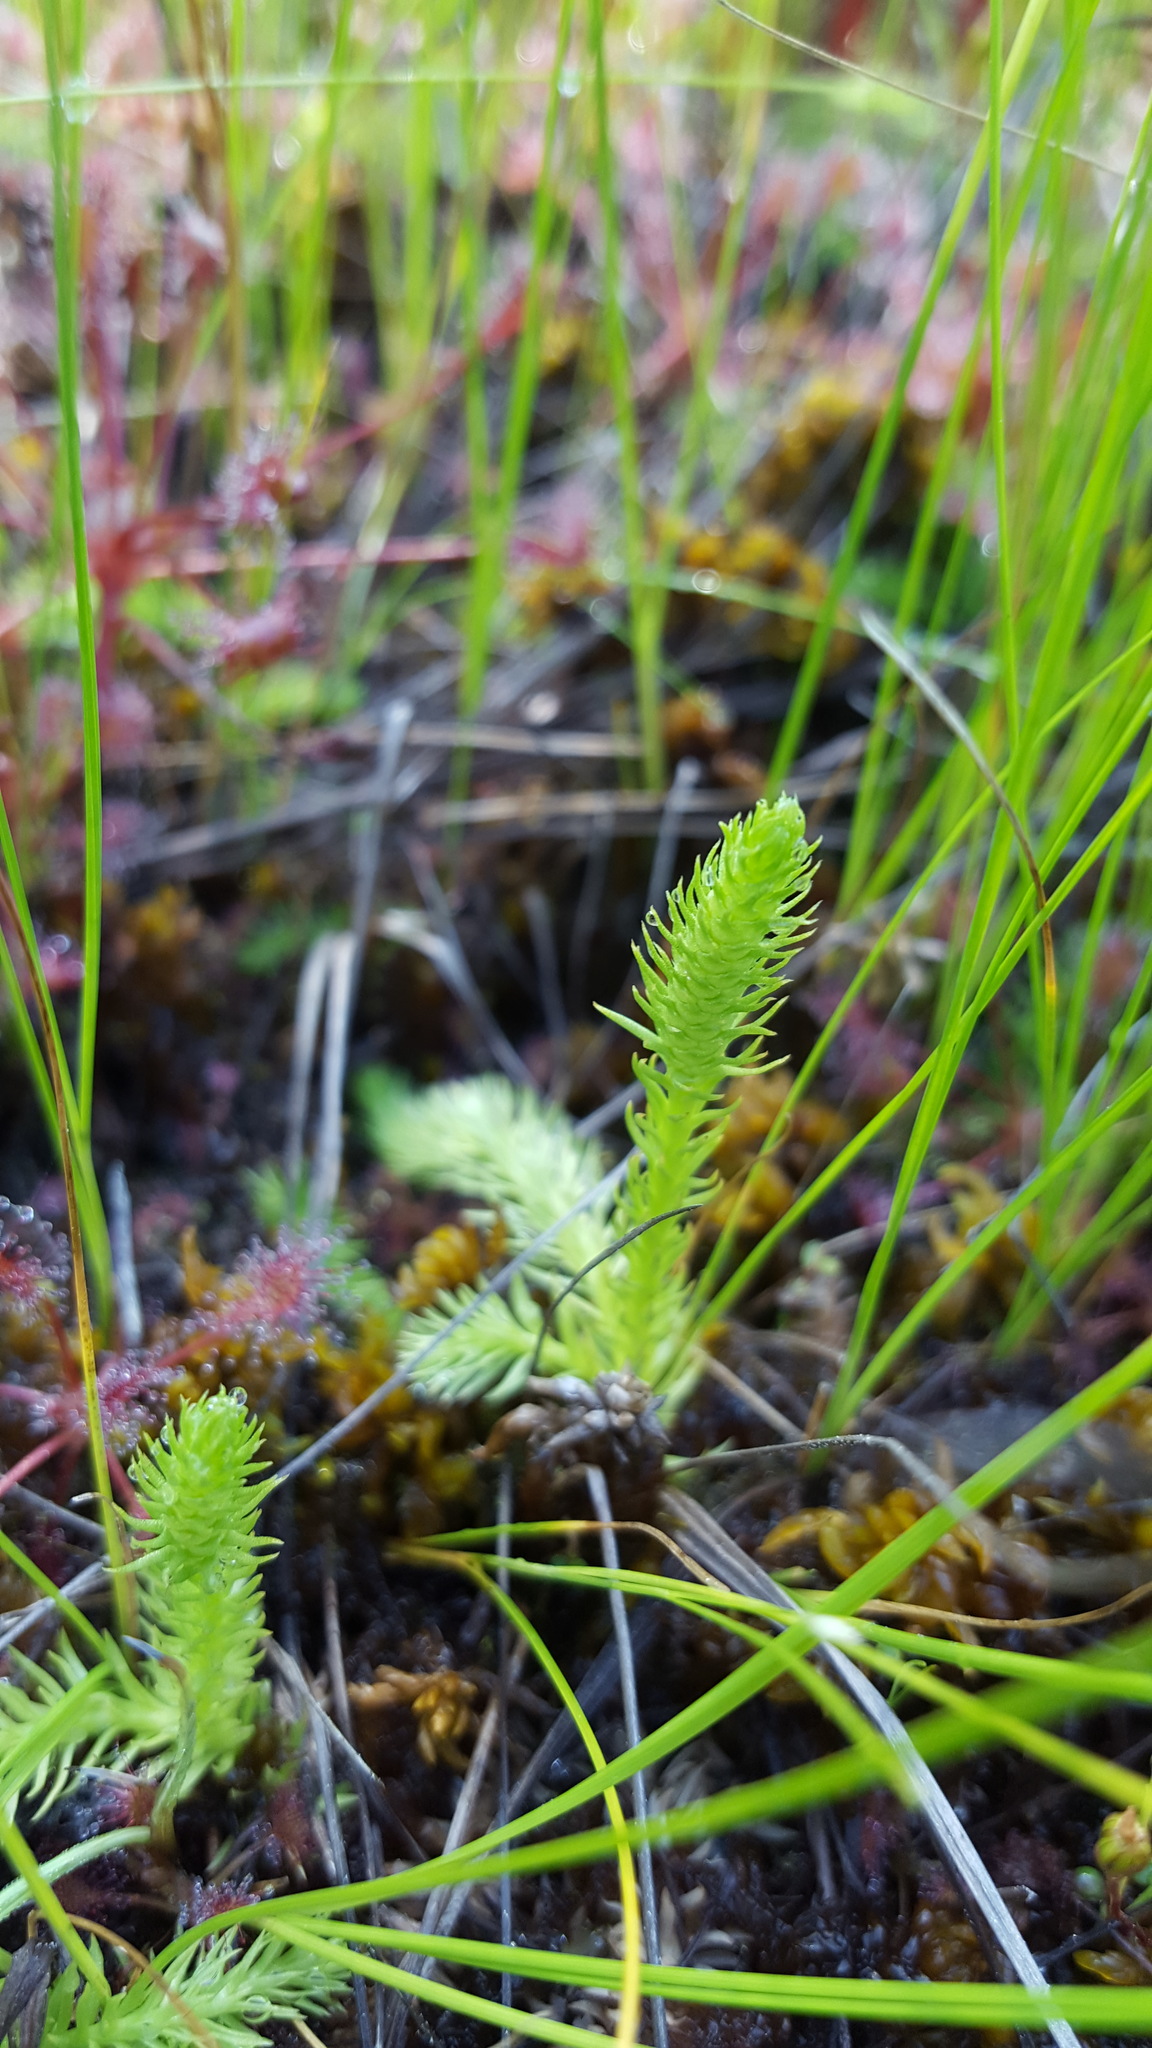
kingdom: Plantae
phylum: Tracheophyta
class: Lycopodiopsida
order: Lycopodiales
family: Lycopodiaceae
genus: Lycopodiella
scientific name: Lycopodiella inundata
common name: Marsh clubmoss
